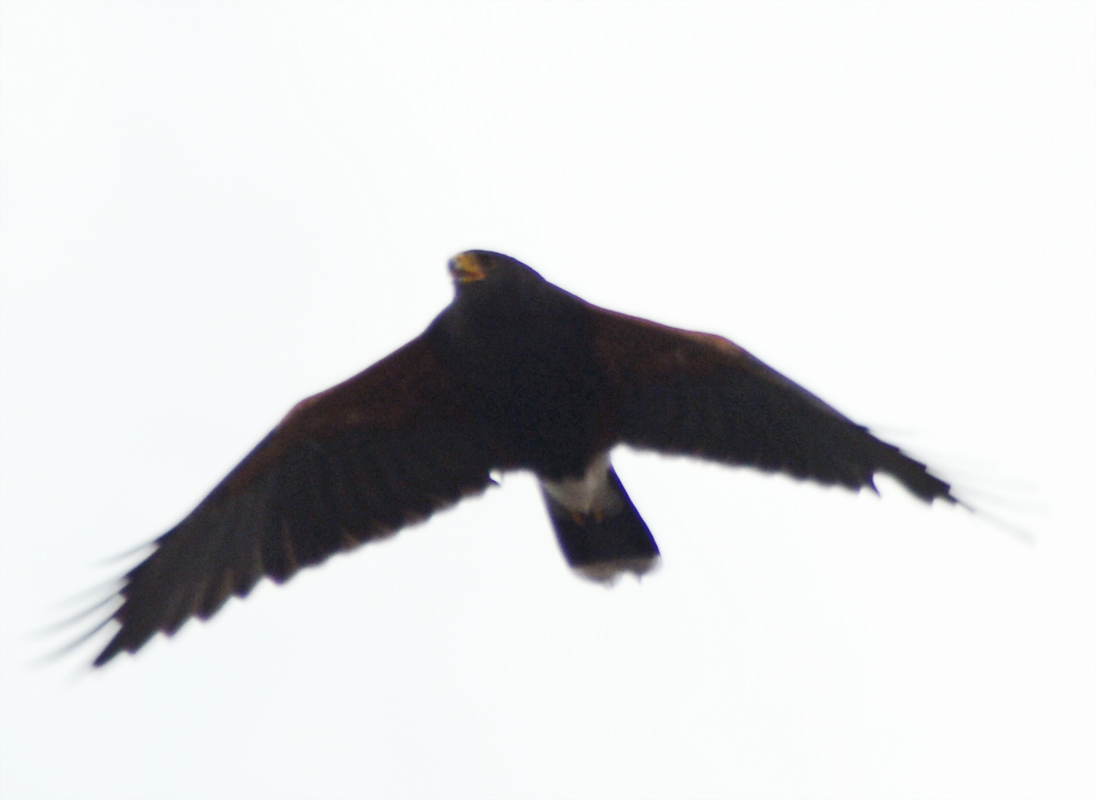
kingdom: Animalia
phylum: Chordata
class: Aves
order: Accipitriformes
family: Accipitridae
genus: Parabuteo
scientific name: Parabuteo unicinctus
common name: Harris's hawk
